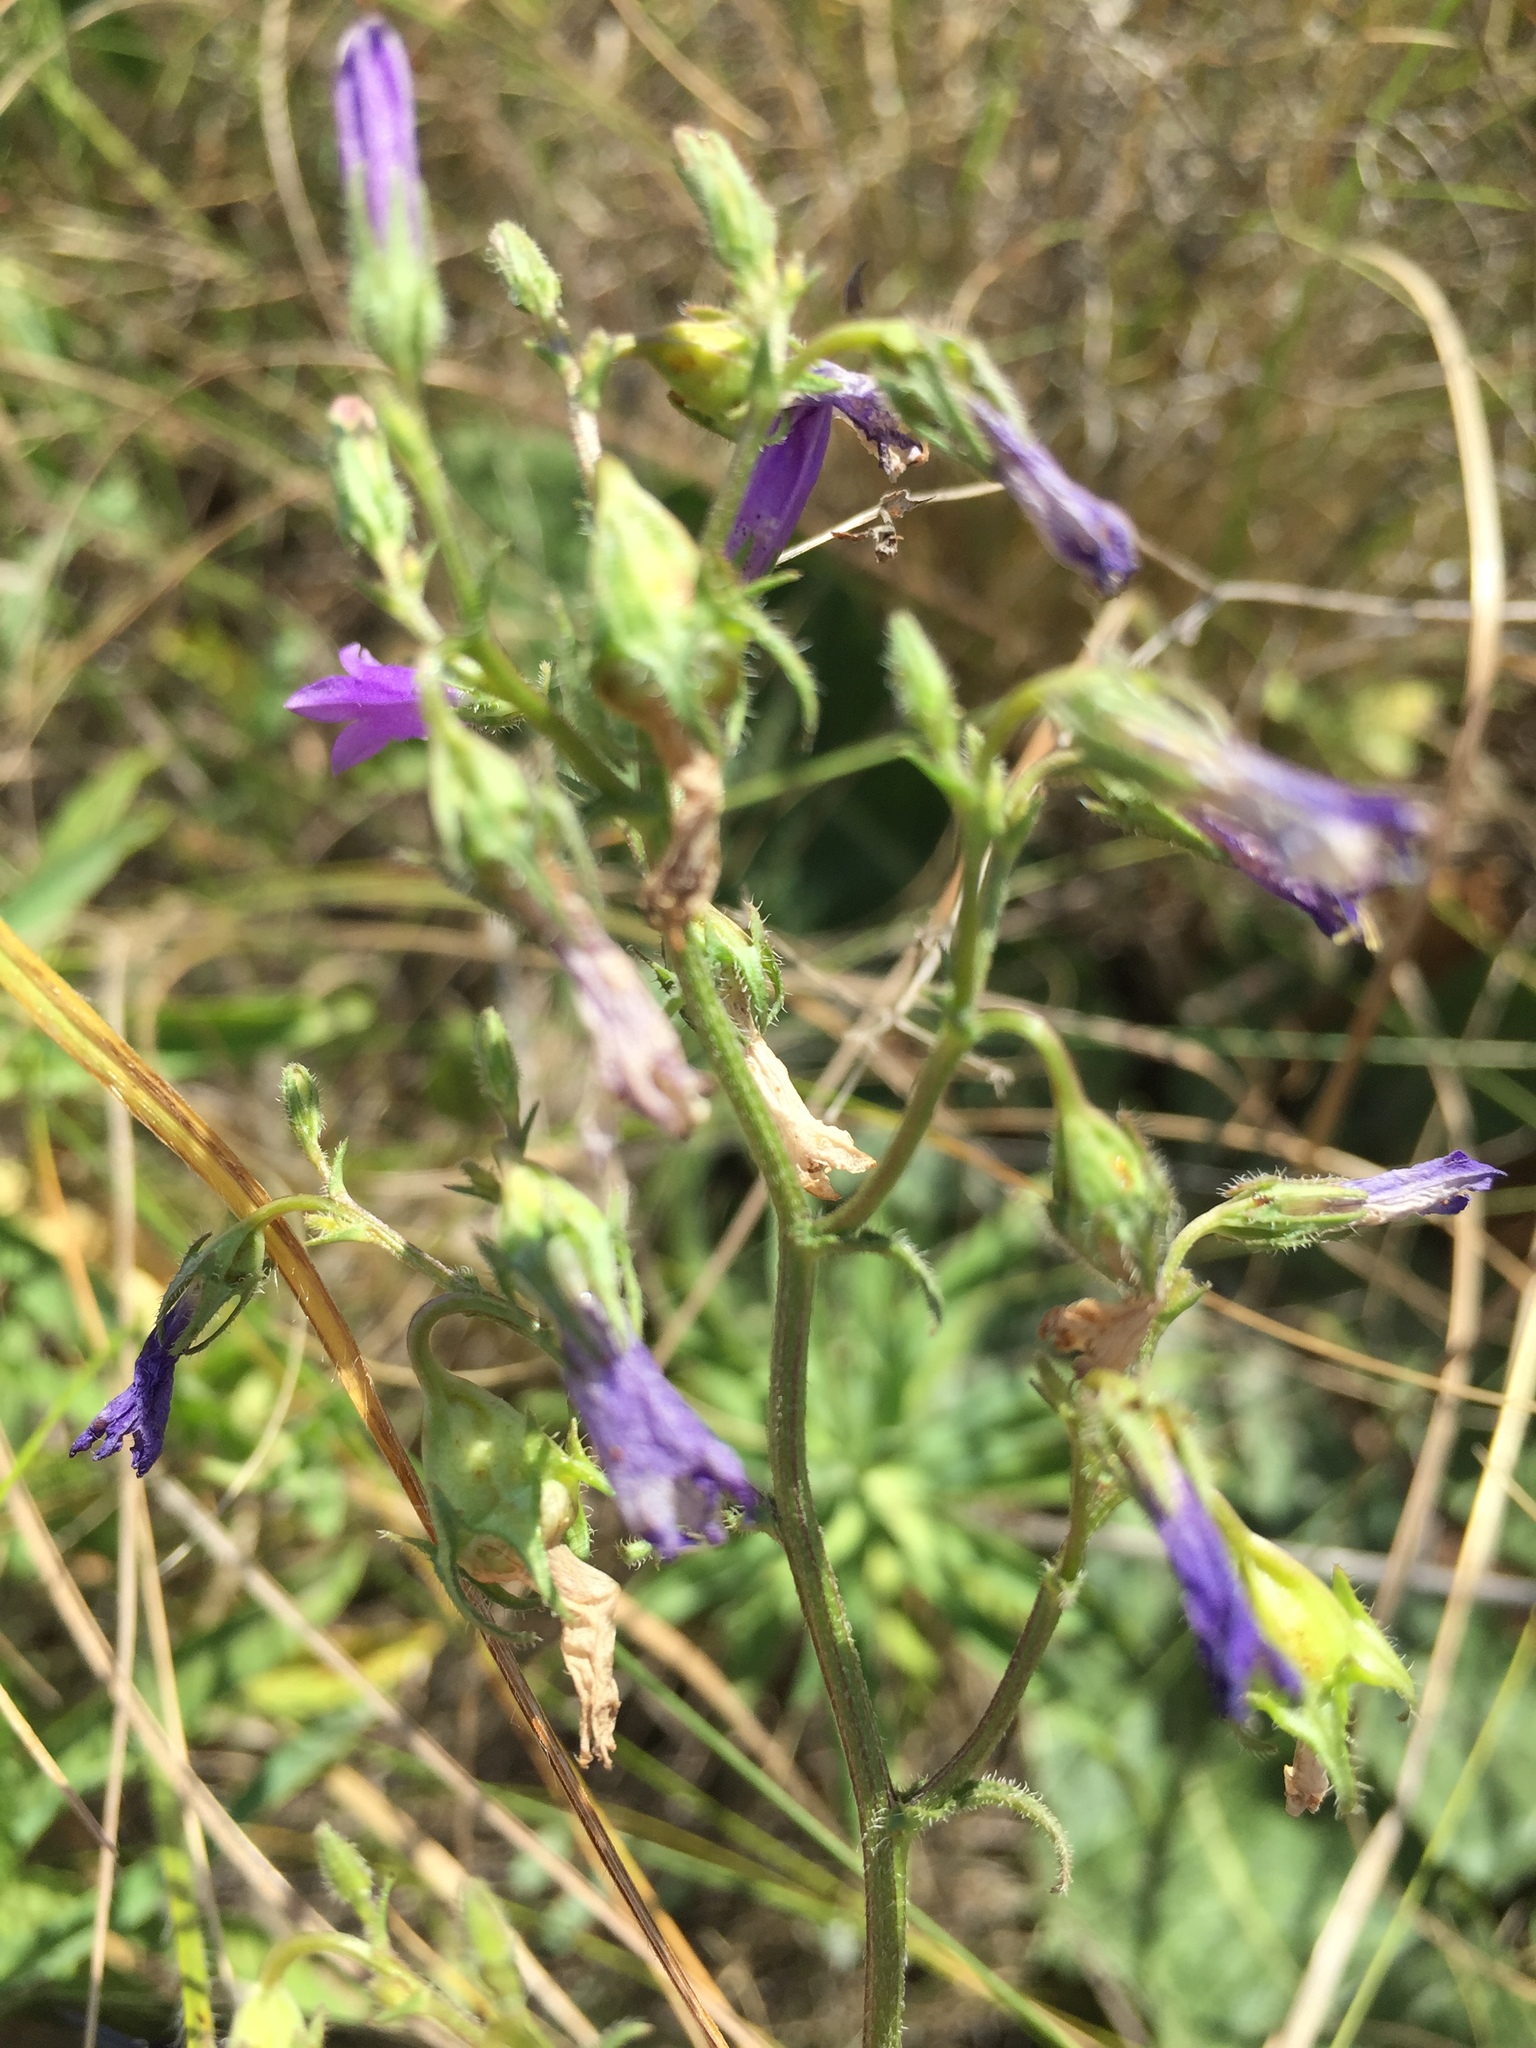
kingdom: Plantae
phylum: Tracheophyta
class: Magnoliopsida
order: Asterales
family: Campanulaceae
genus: Campanula
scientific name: Campanula sibirica
